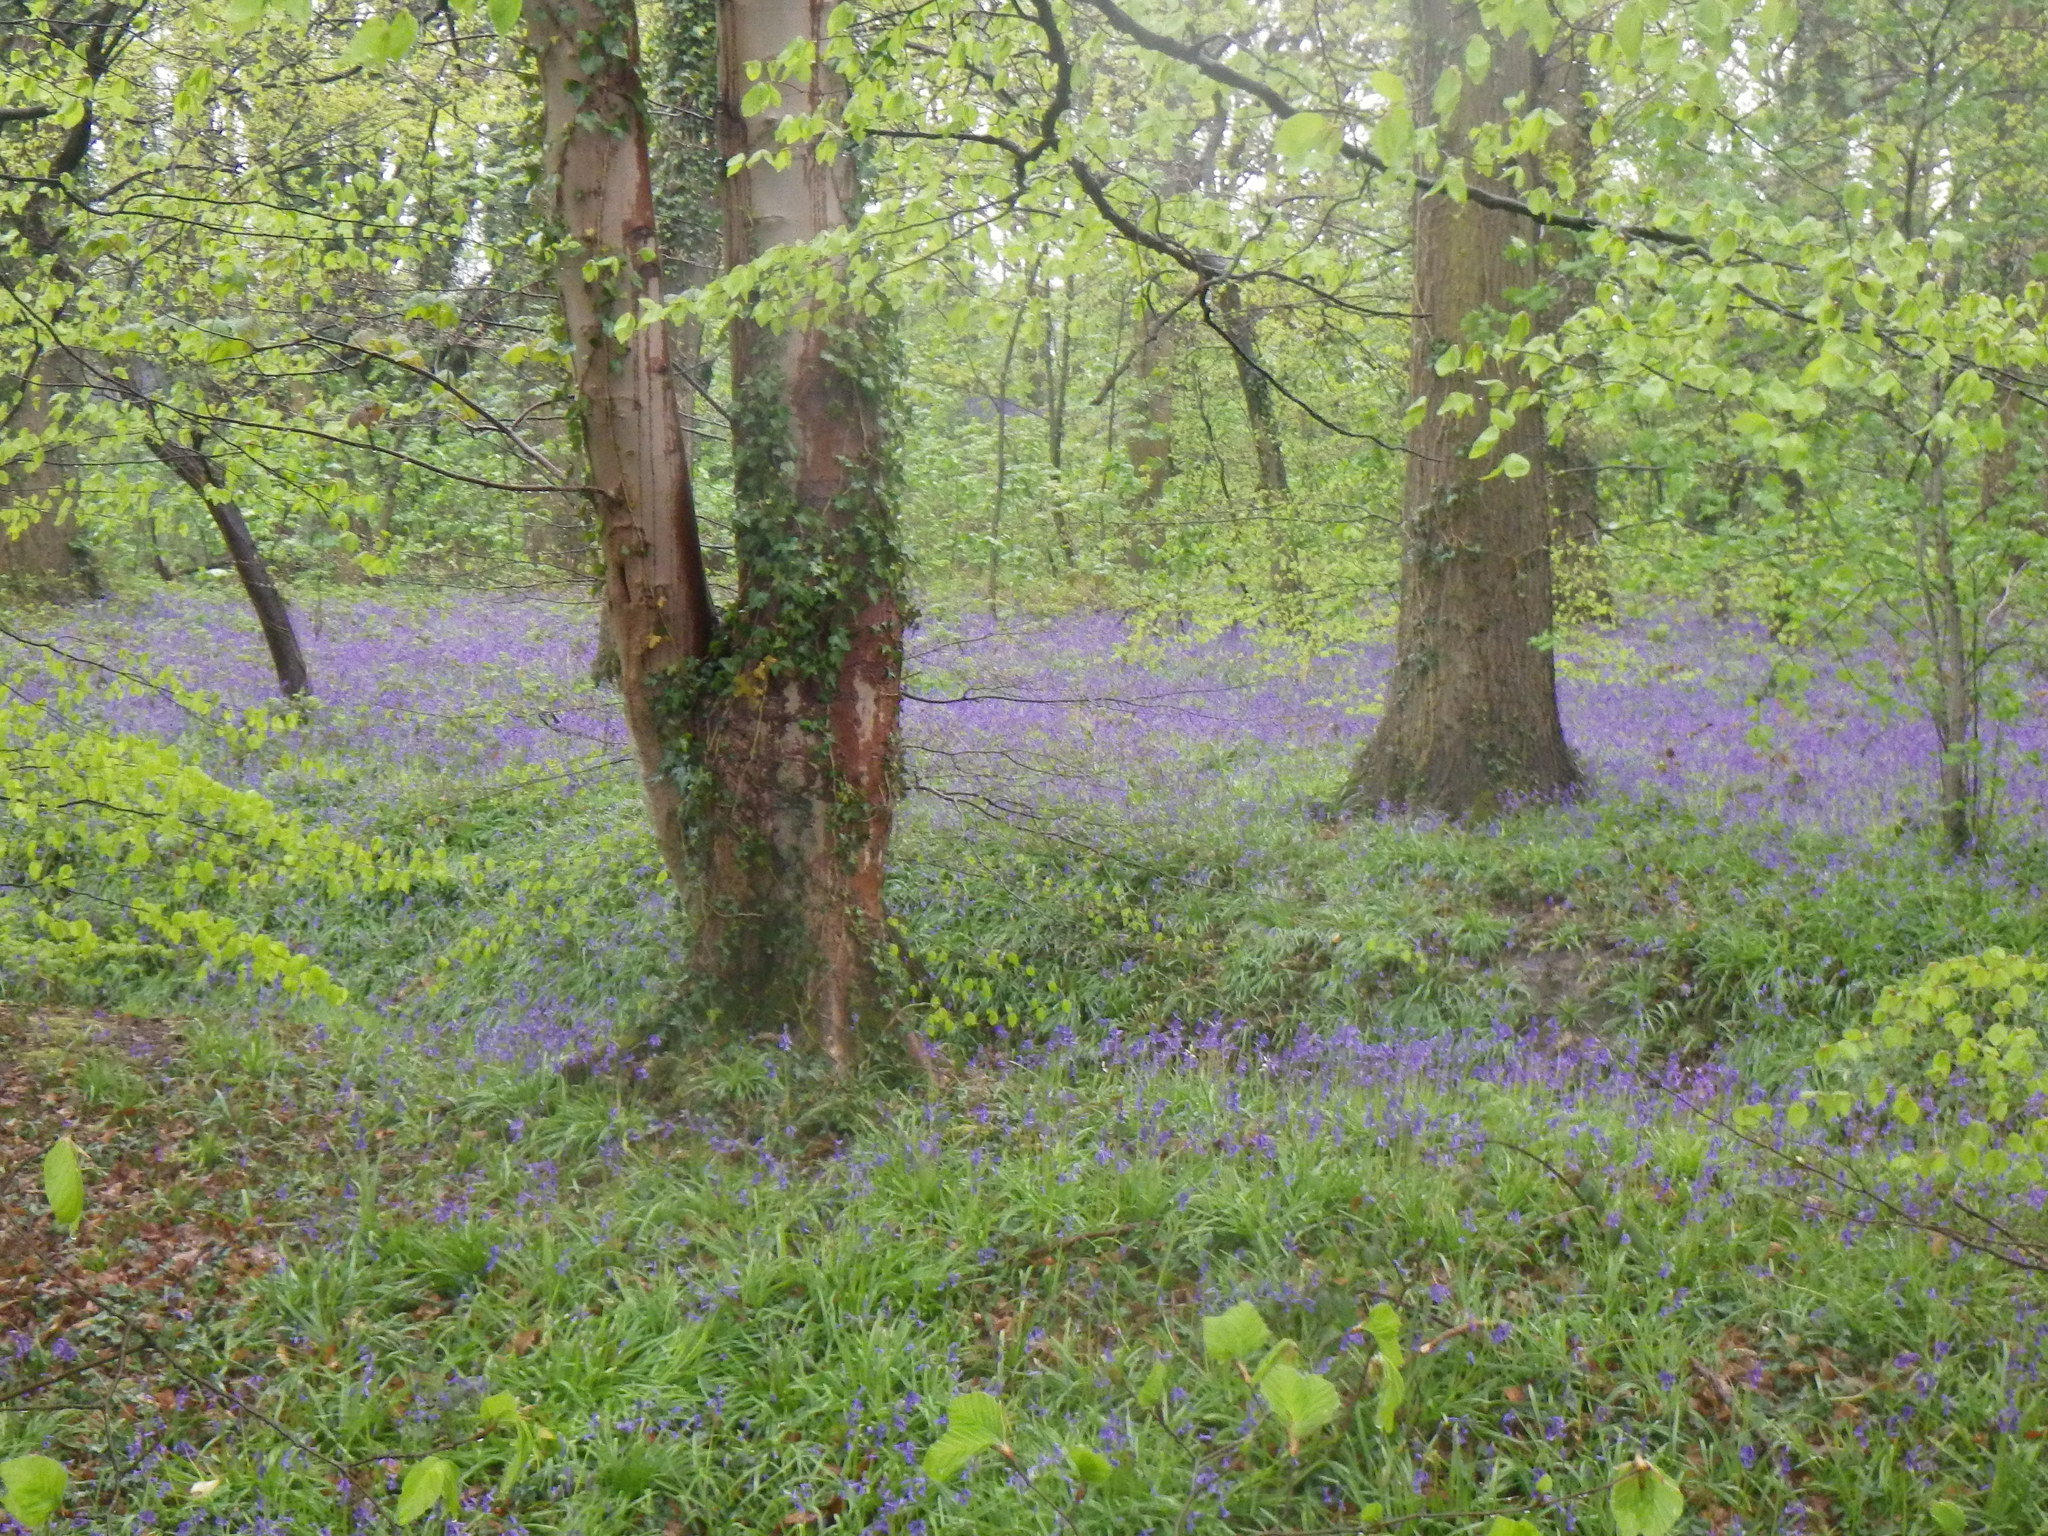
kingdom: Plantae
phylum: Tracheophyta
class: Liliopsida
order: Asparagales
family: Asparagaceae
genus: Hyacinthoides
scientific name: Hyacinthoides non-scripta
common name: Bluebell
